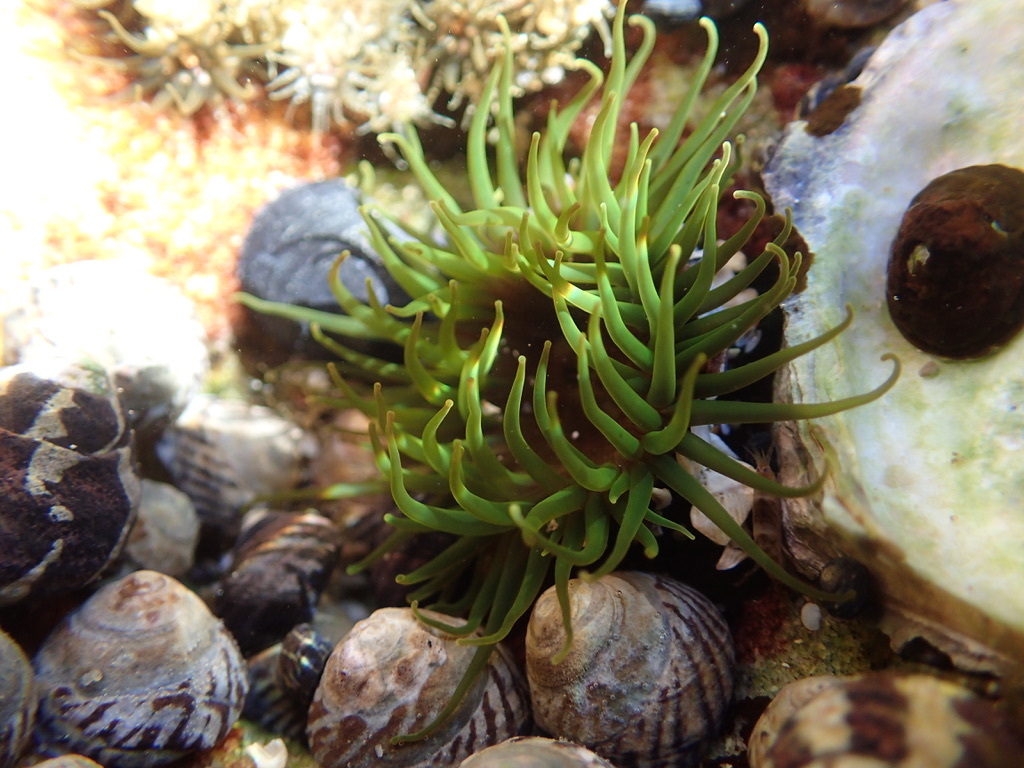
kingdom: Animalia
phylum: Cnidaria
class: Anthozoa
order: Actiniaria
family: Actiniidae
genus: Aulactinia
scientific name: Aulactinia veratra
